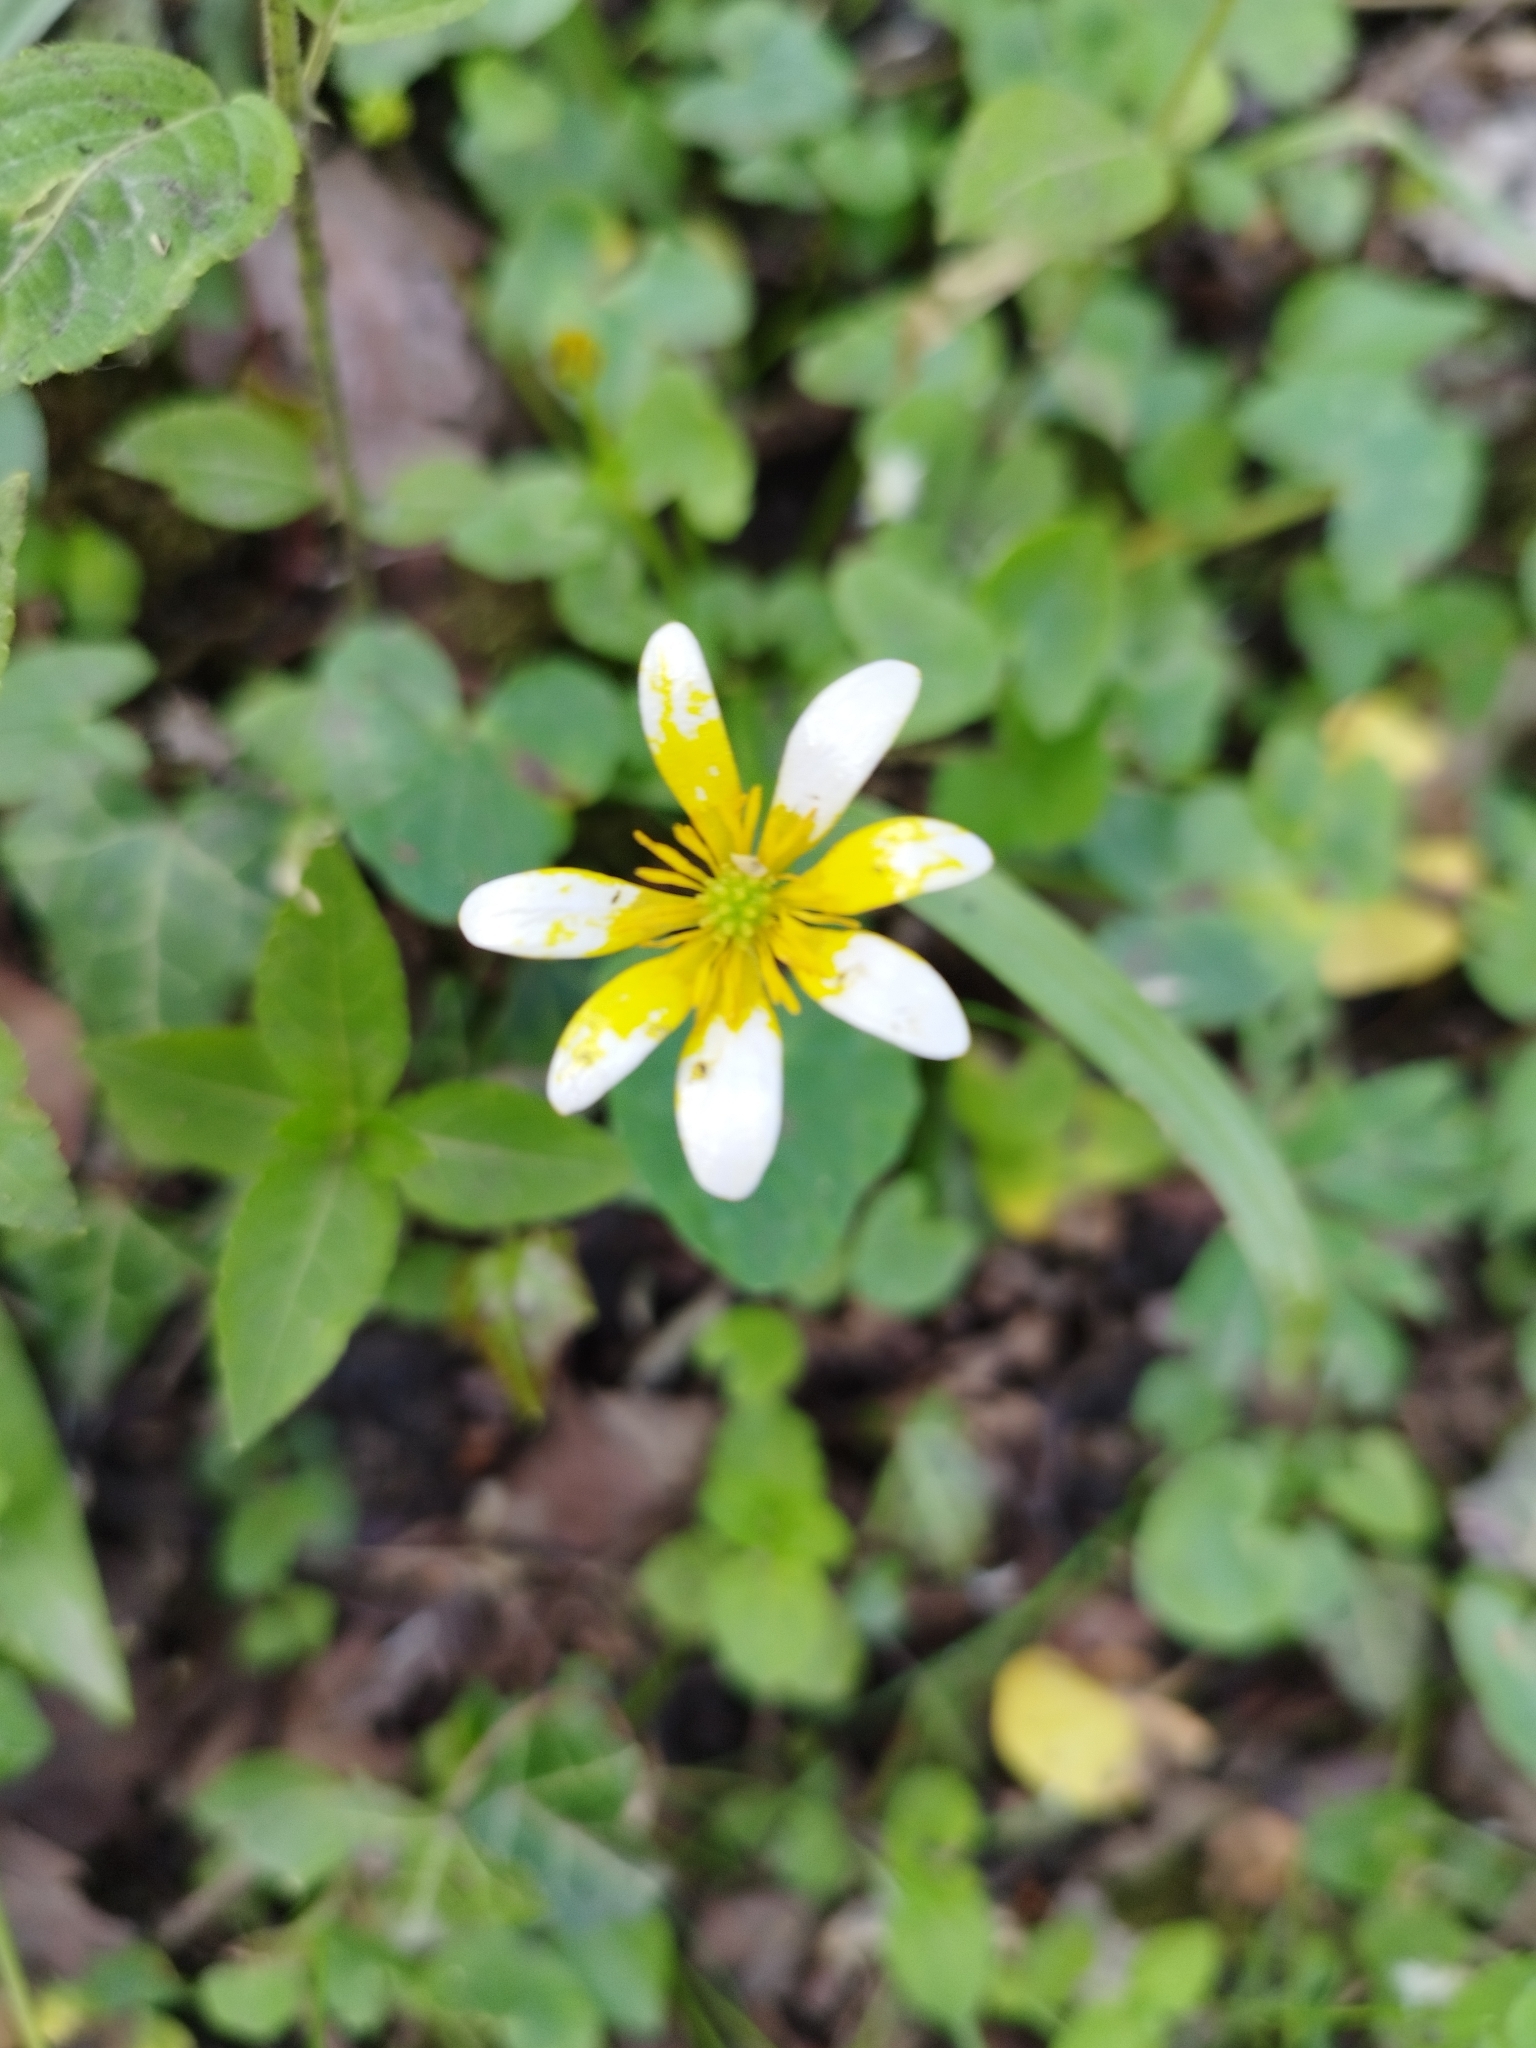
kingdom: Plantae
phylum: Tracheophyta
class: Magnoliopsida
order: Ranunculales
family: Ranunculaceae
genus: Ficaria
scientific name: Ficaria verna
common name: Lesser celandine
